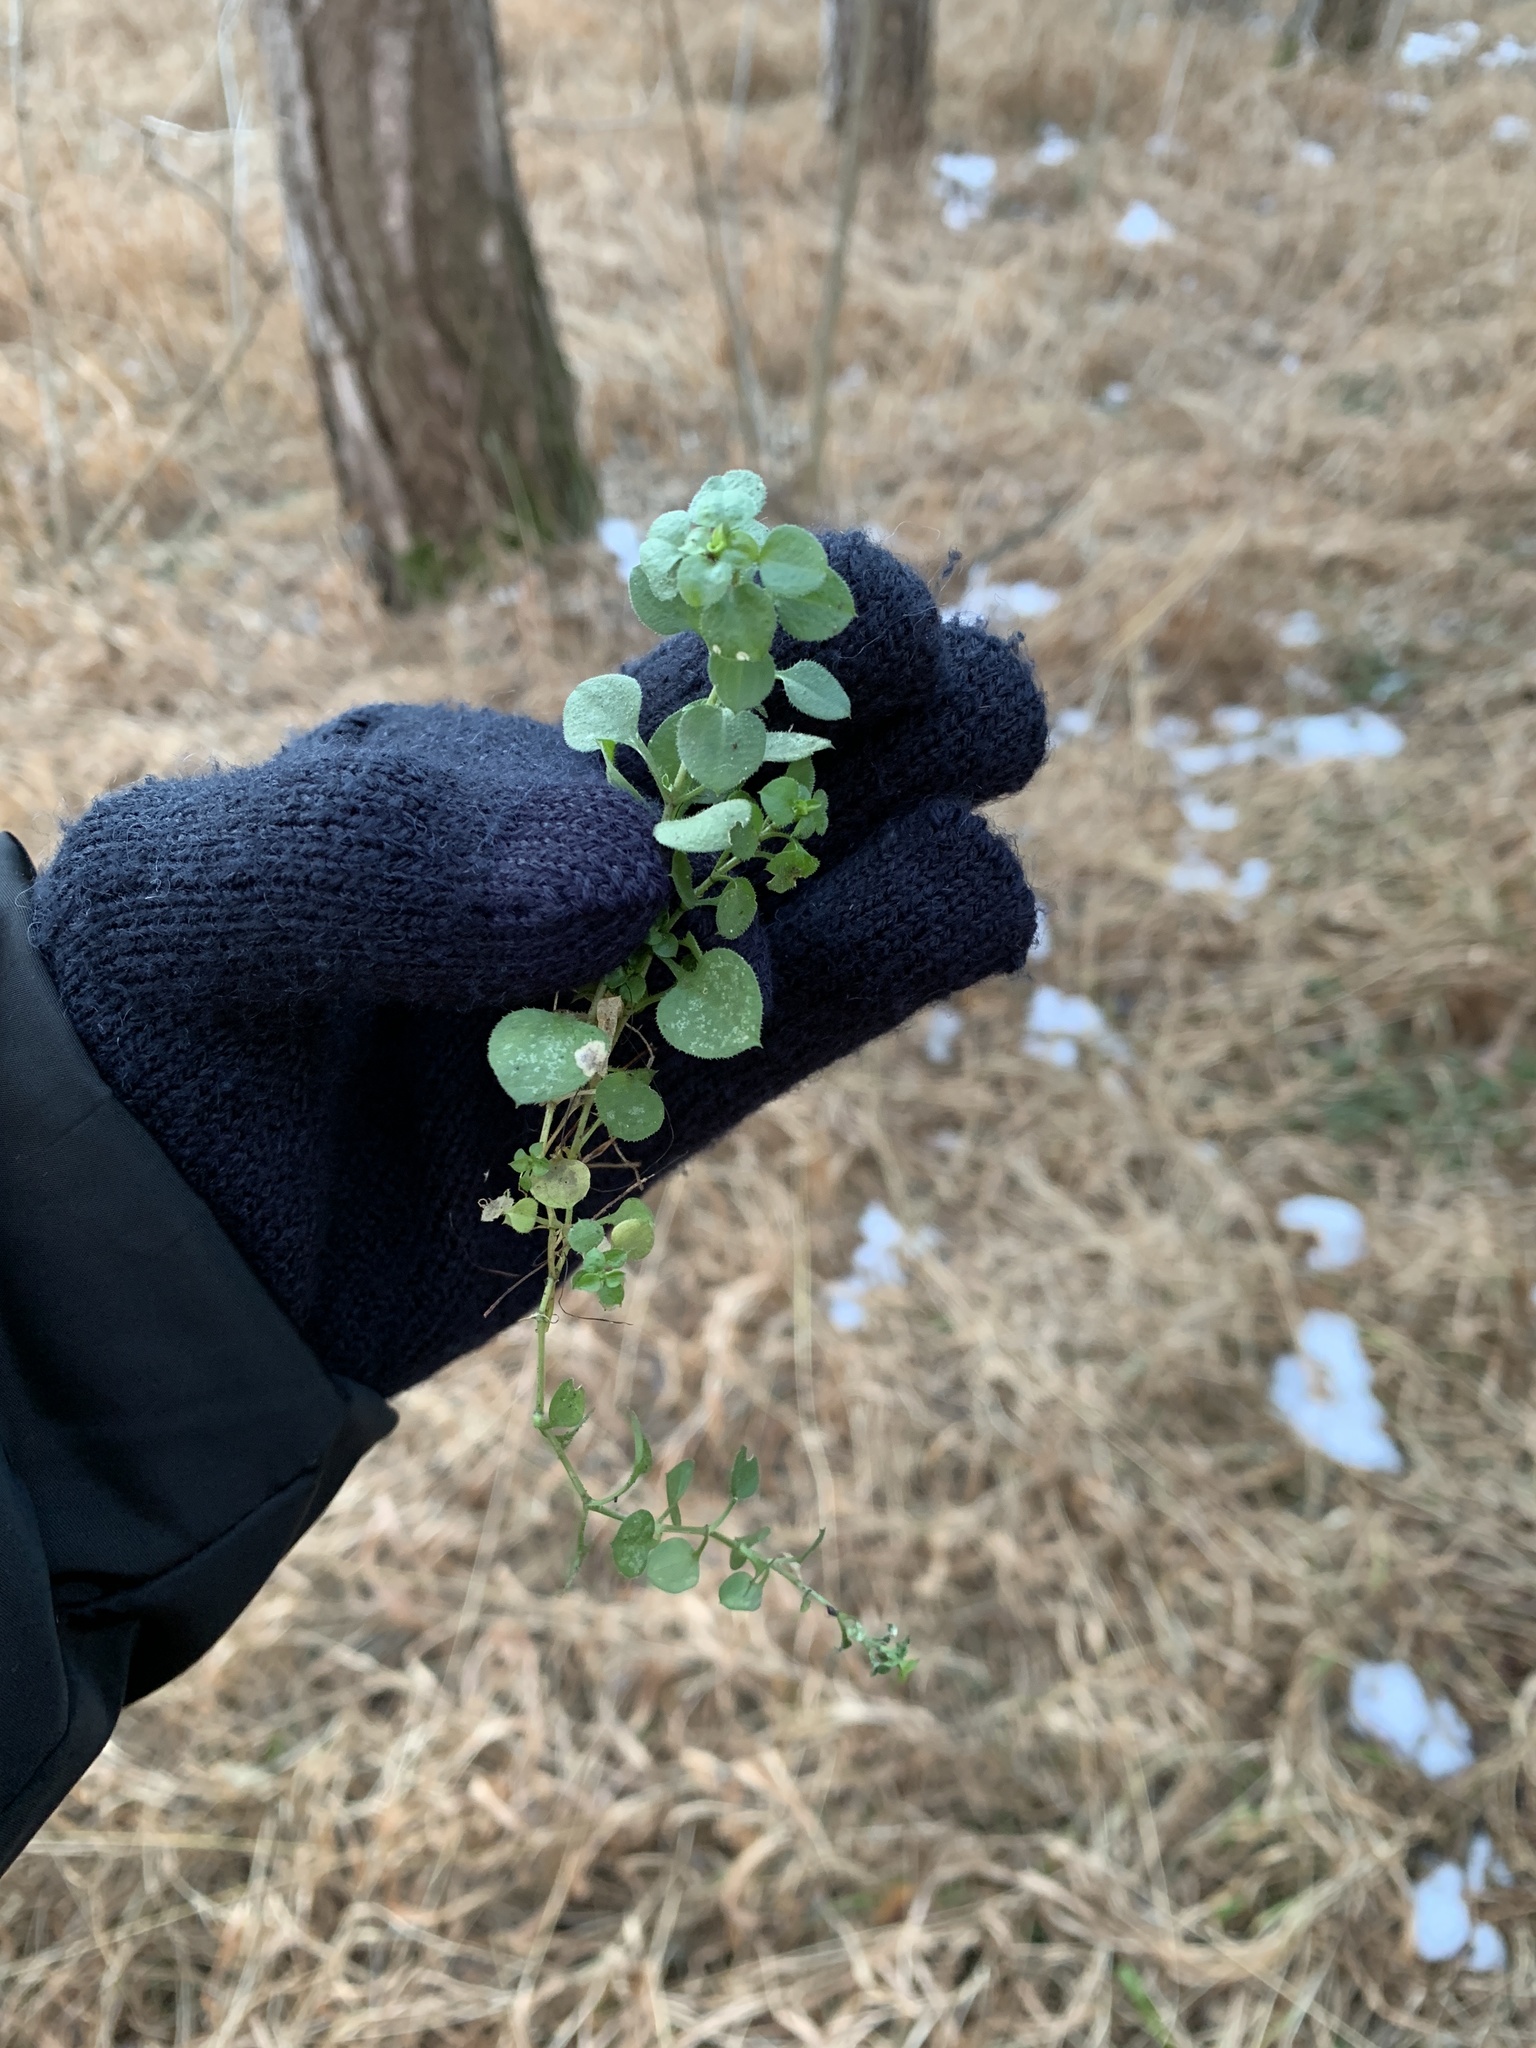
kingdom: Plantae
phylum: Tracheophyta
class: Magnoliopsida
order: Caryophyllales
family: Caryophyllaceae
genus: Moehringia
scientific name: Moehringia trinervia
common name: Three-nerved sandwort
